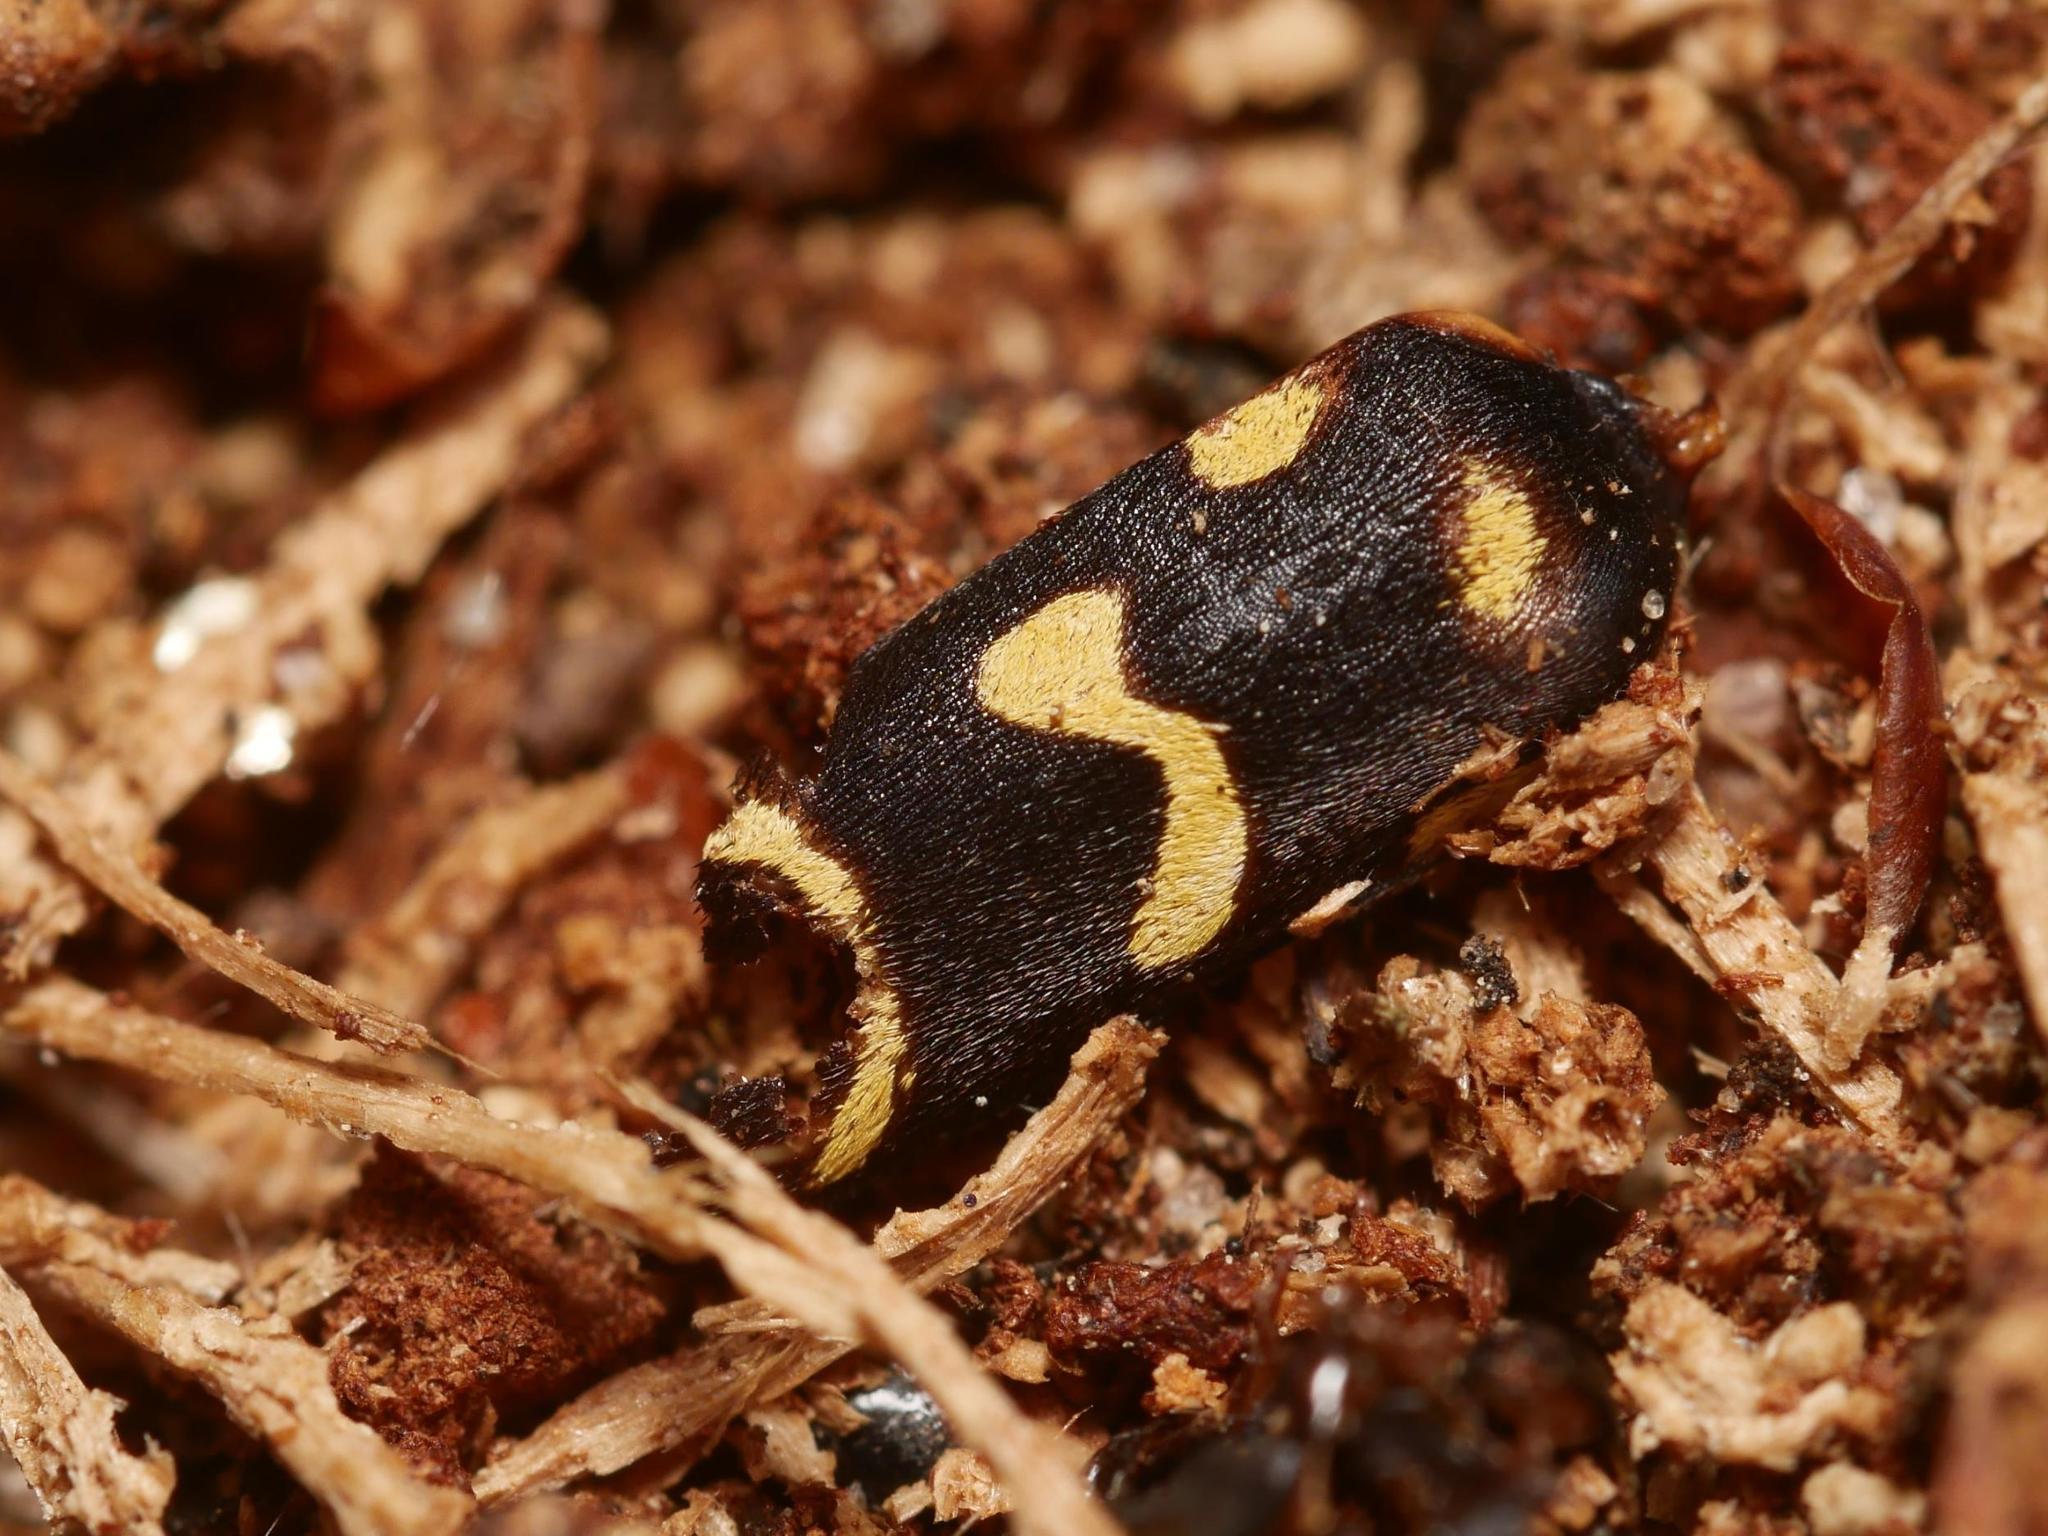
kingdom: Animalia
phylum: Arthropoda
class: Insecta
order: Coleoptera
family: Cerambycidae
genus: Plagionotus
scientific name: Plagionotus arcuatus
